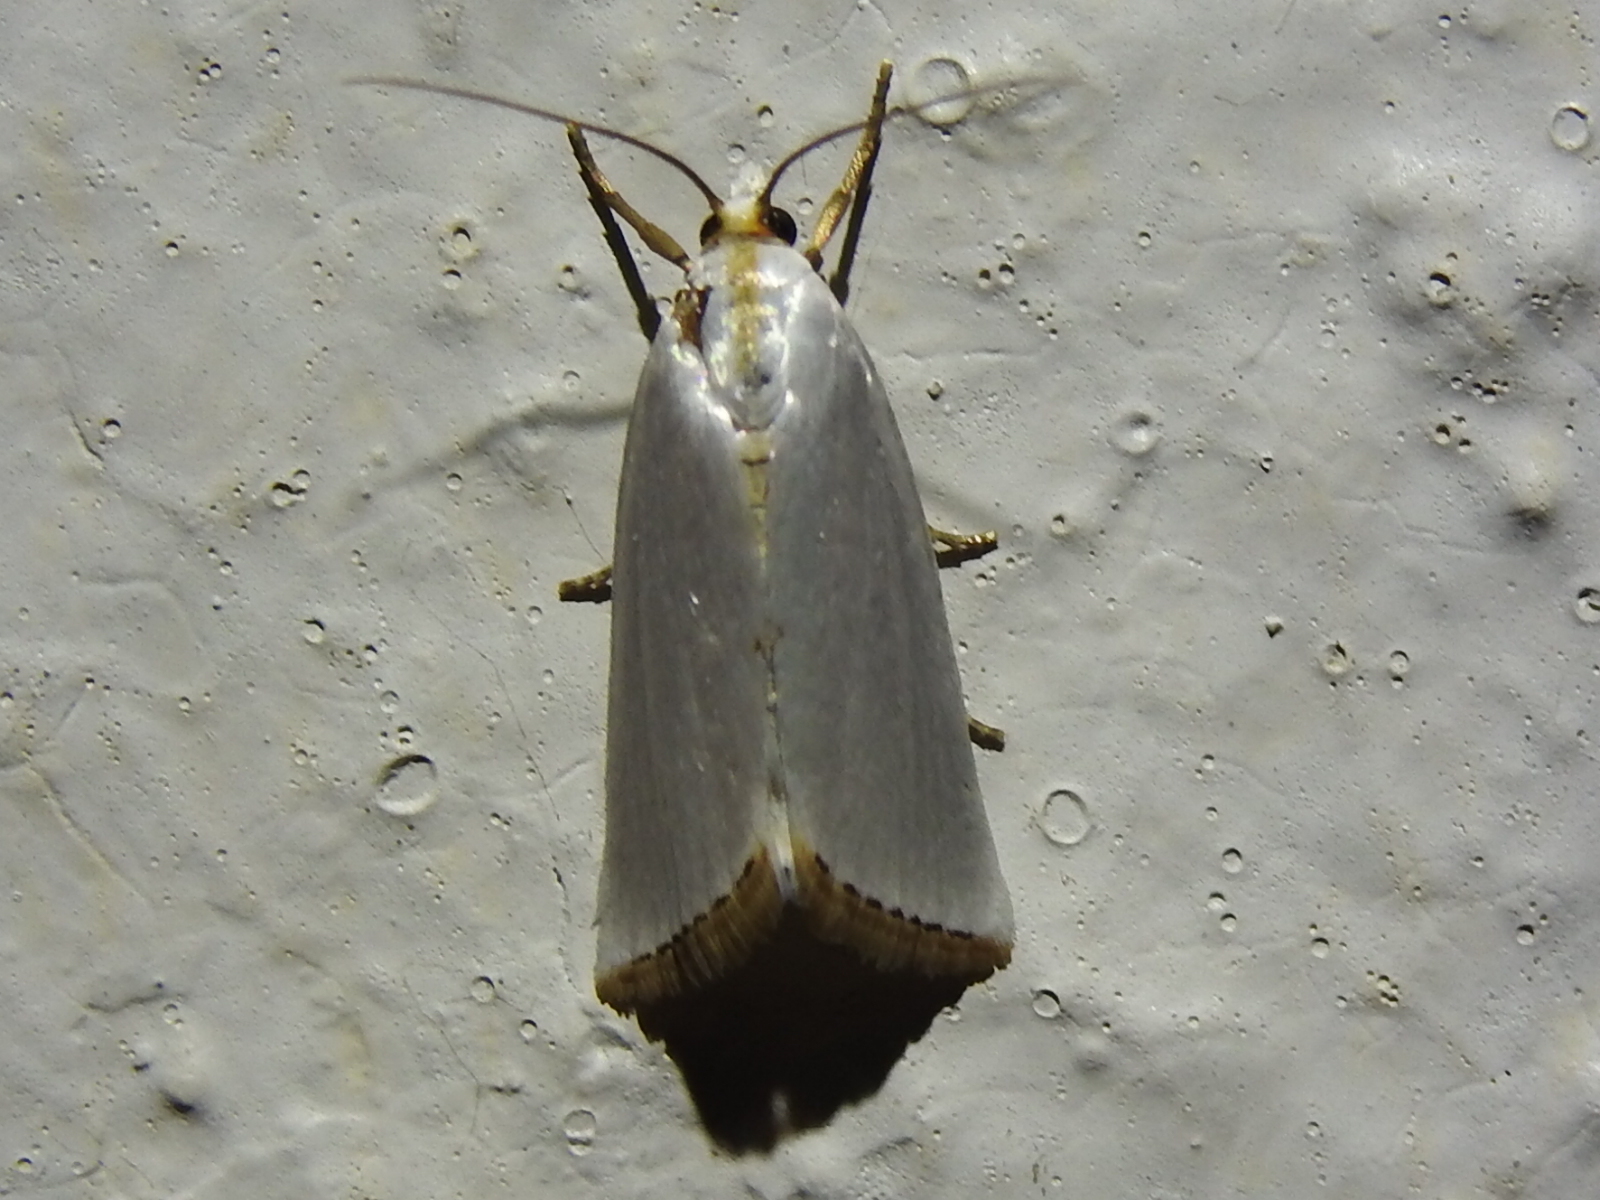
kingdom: Animalia
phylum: Arthropoda
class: Insecta
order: Lepidoptera
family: Crambidae
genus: Argyria
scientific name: Argyria nivalis
